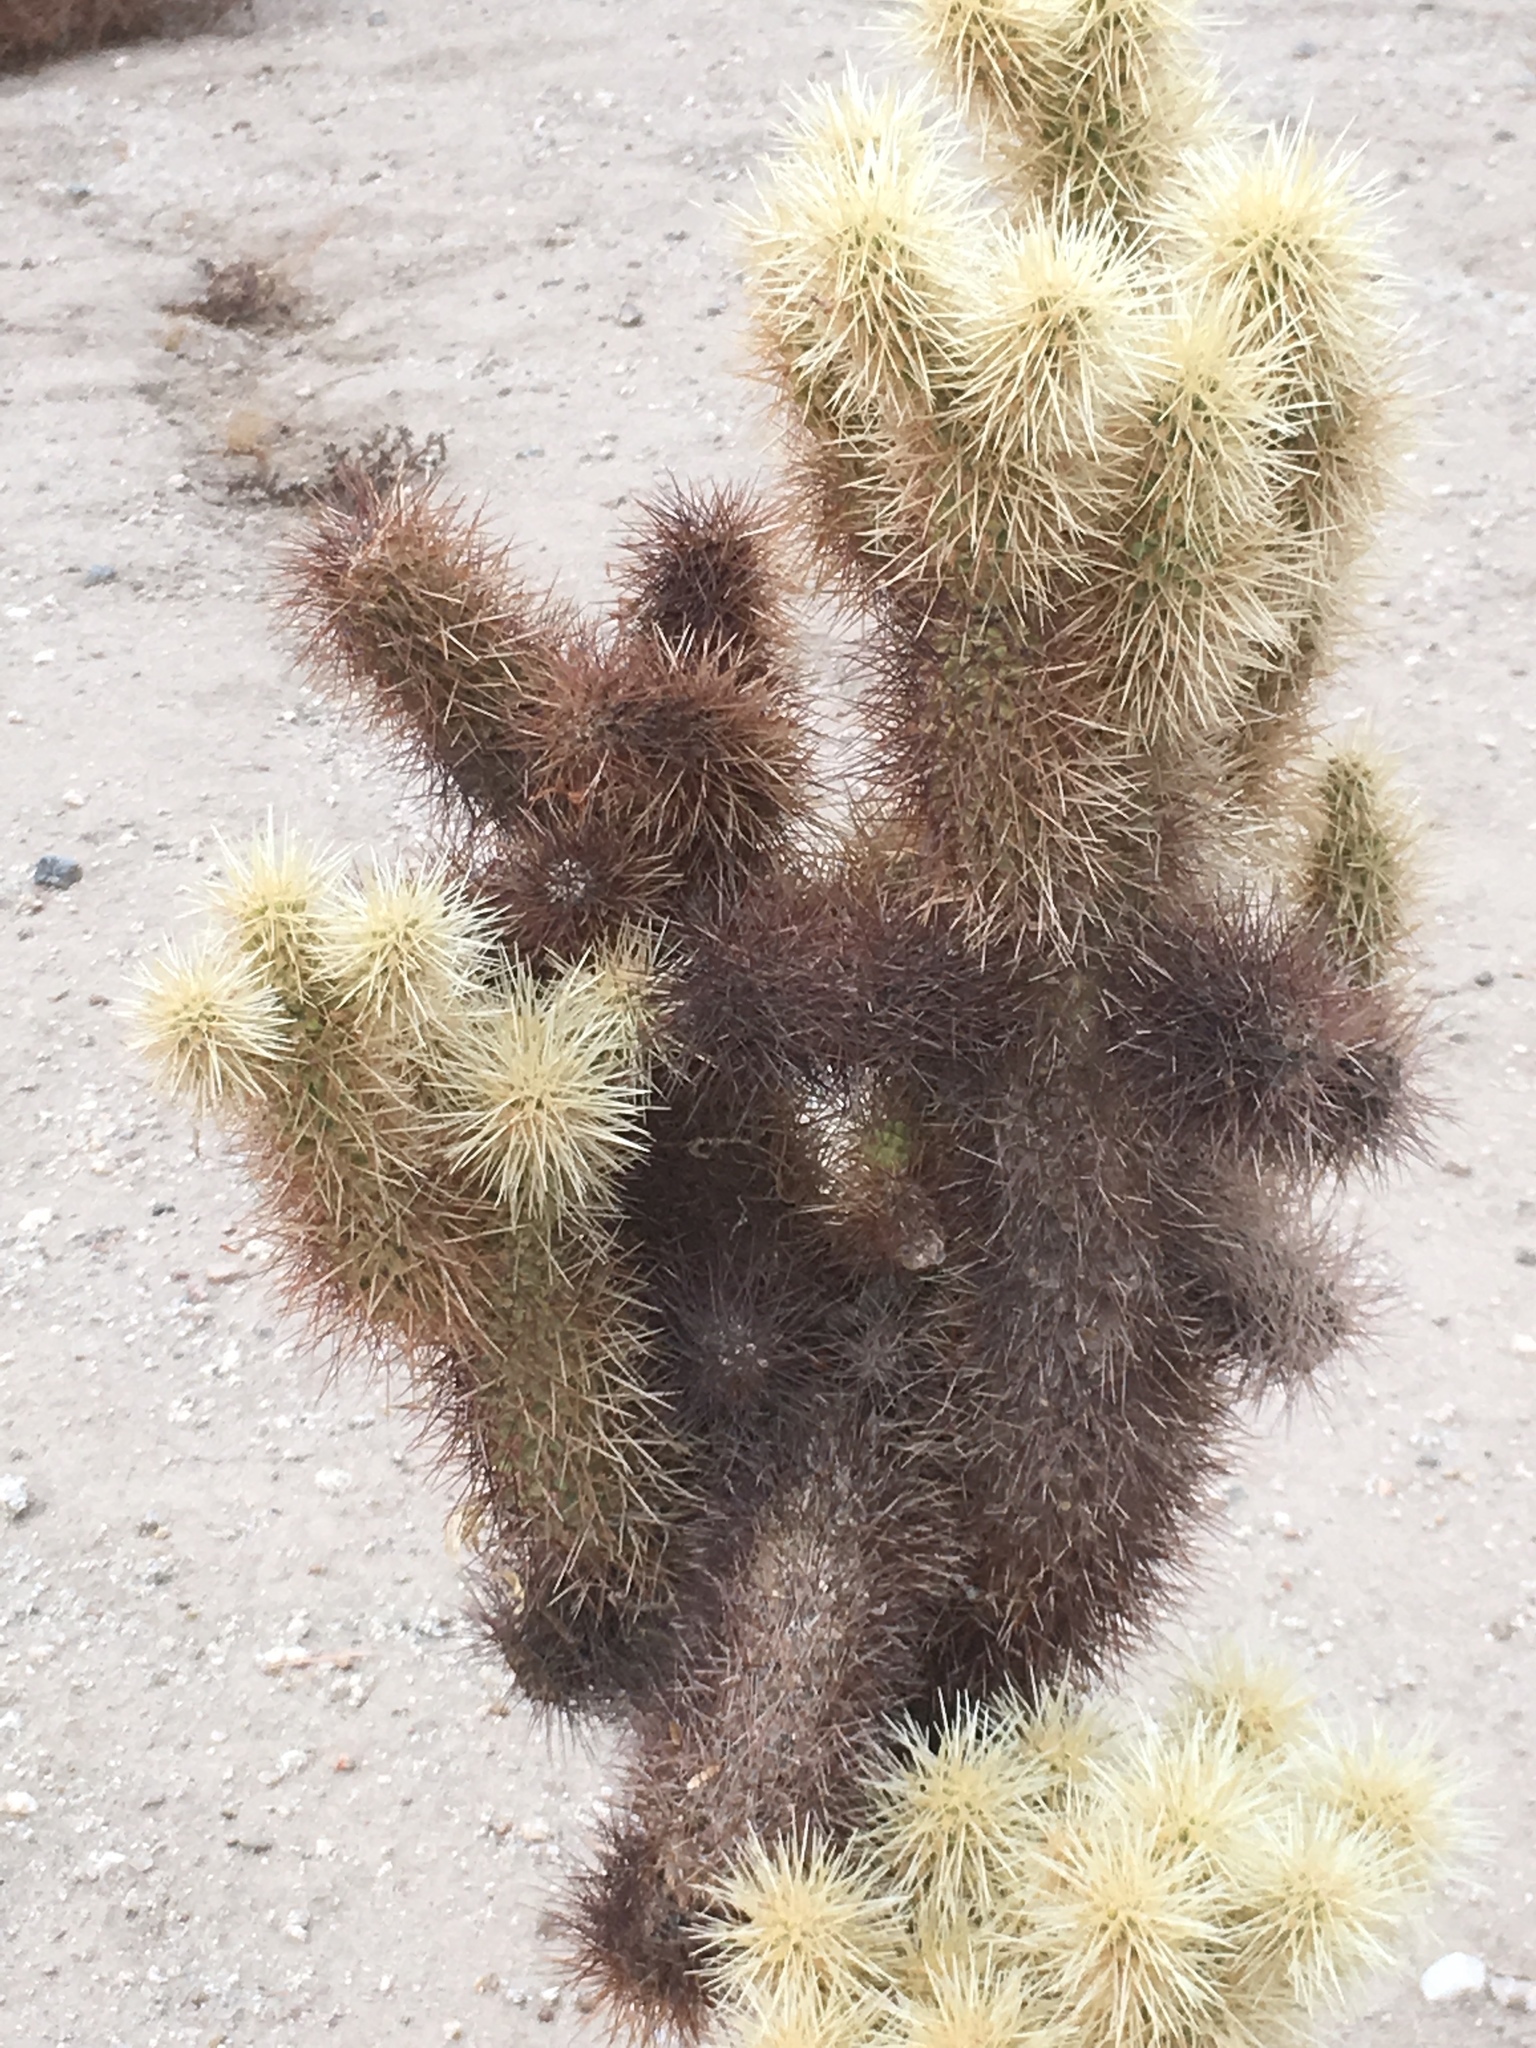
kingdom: Plantae
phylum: Tracheophyta
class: Magnoliopsida
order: Caryophyllales
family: Cactaceae
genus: Cylindropuntia
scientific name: Cylindropuntia fosbergii
